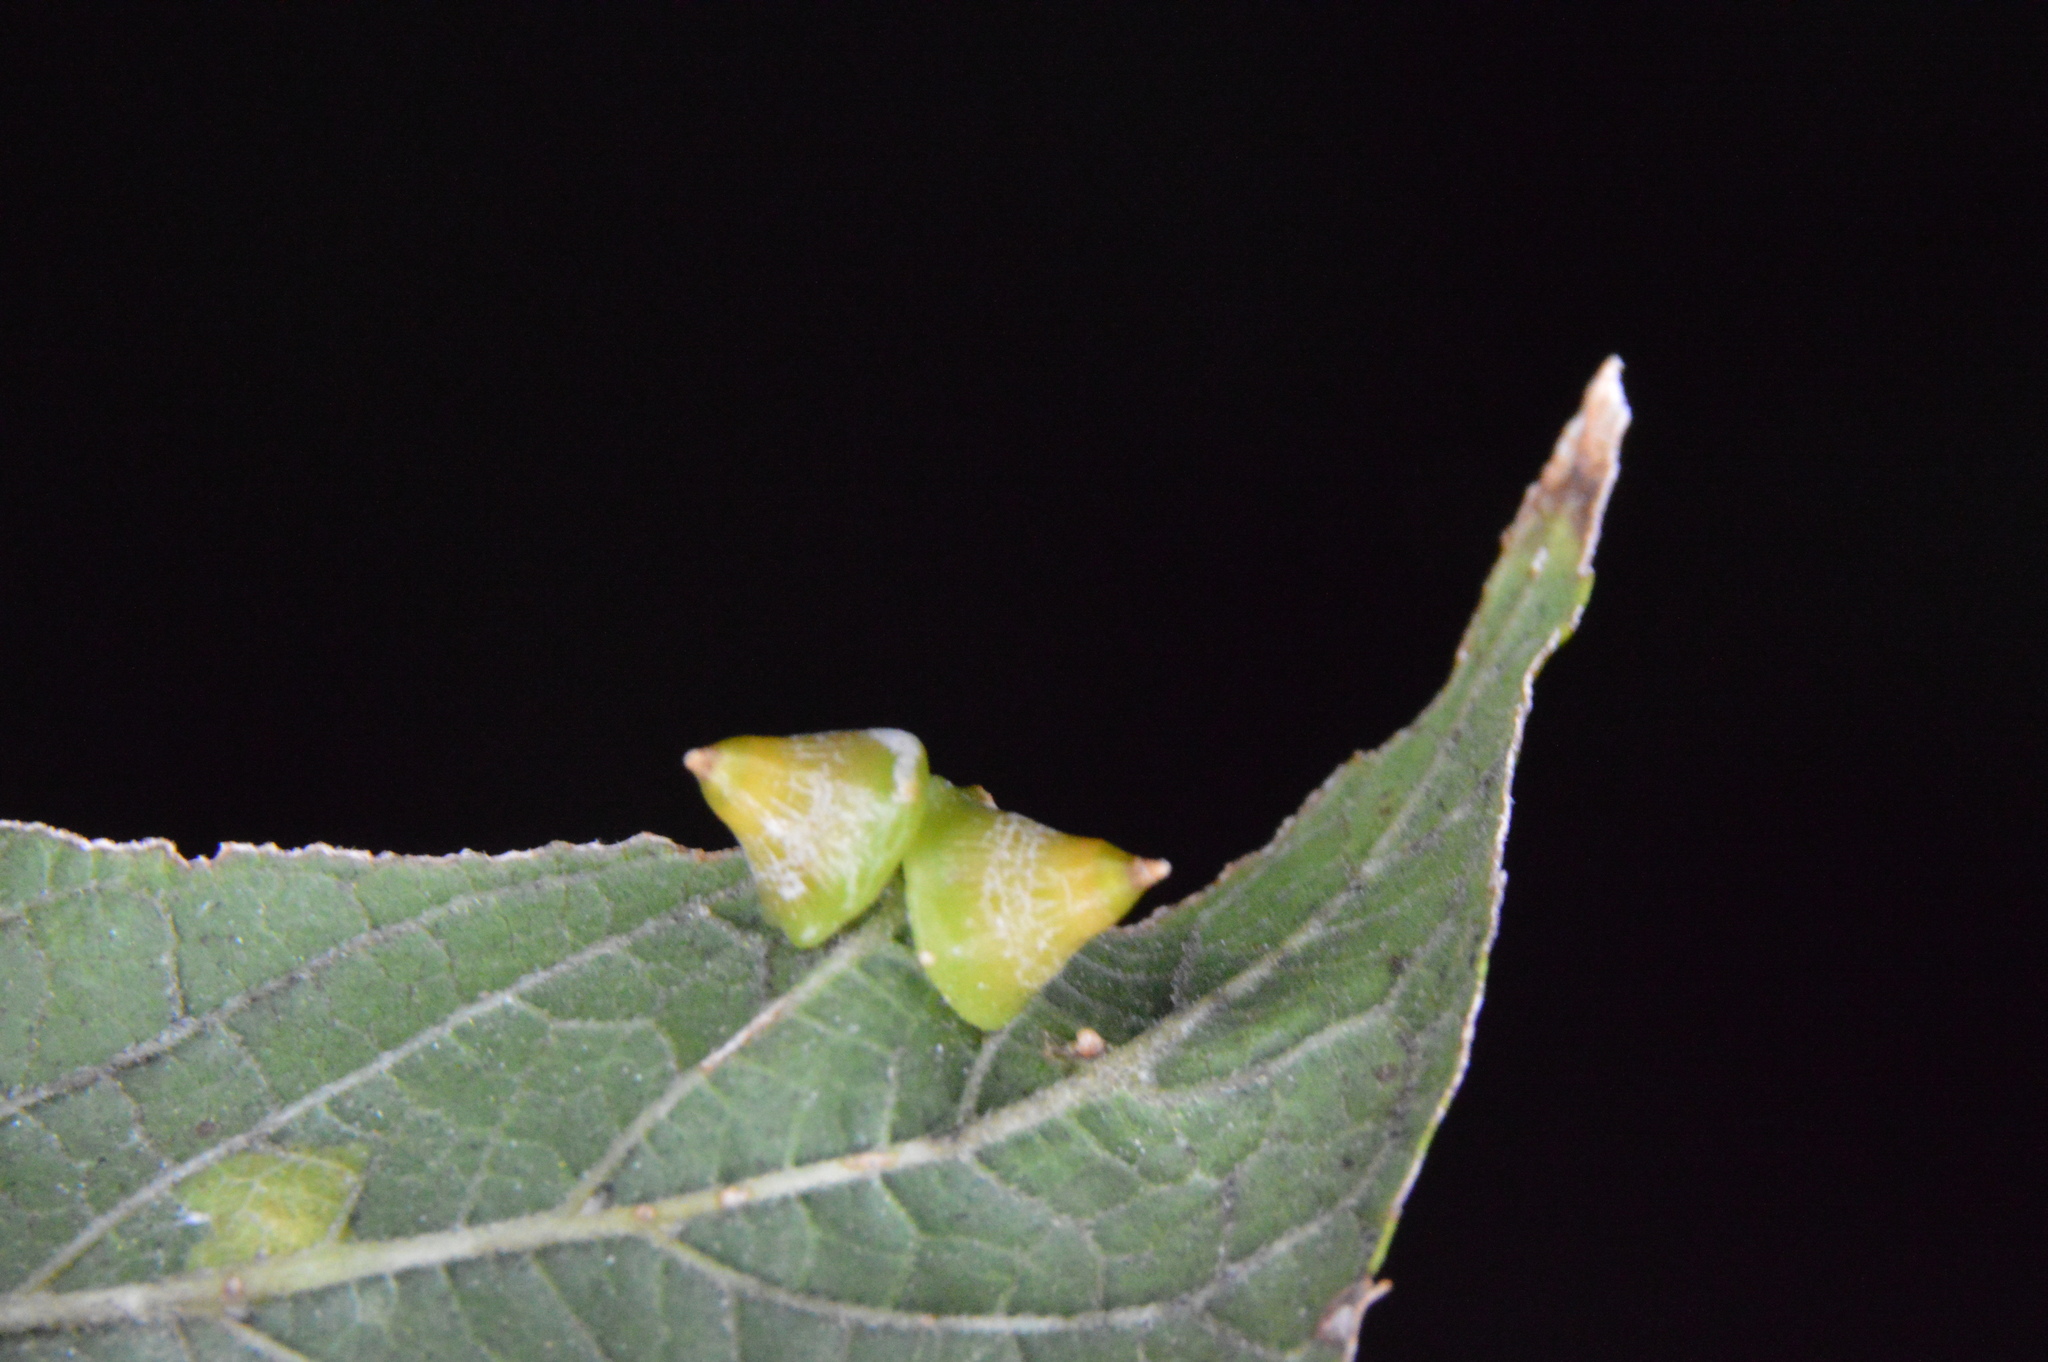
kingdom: Animalia
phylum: Arthropoda
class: Insecta
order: Diptera
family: Cecidomyiidae
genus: Celticecis
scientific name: Celticecis spiniformis
